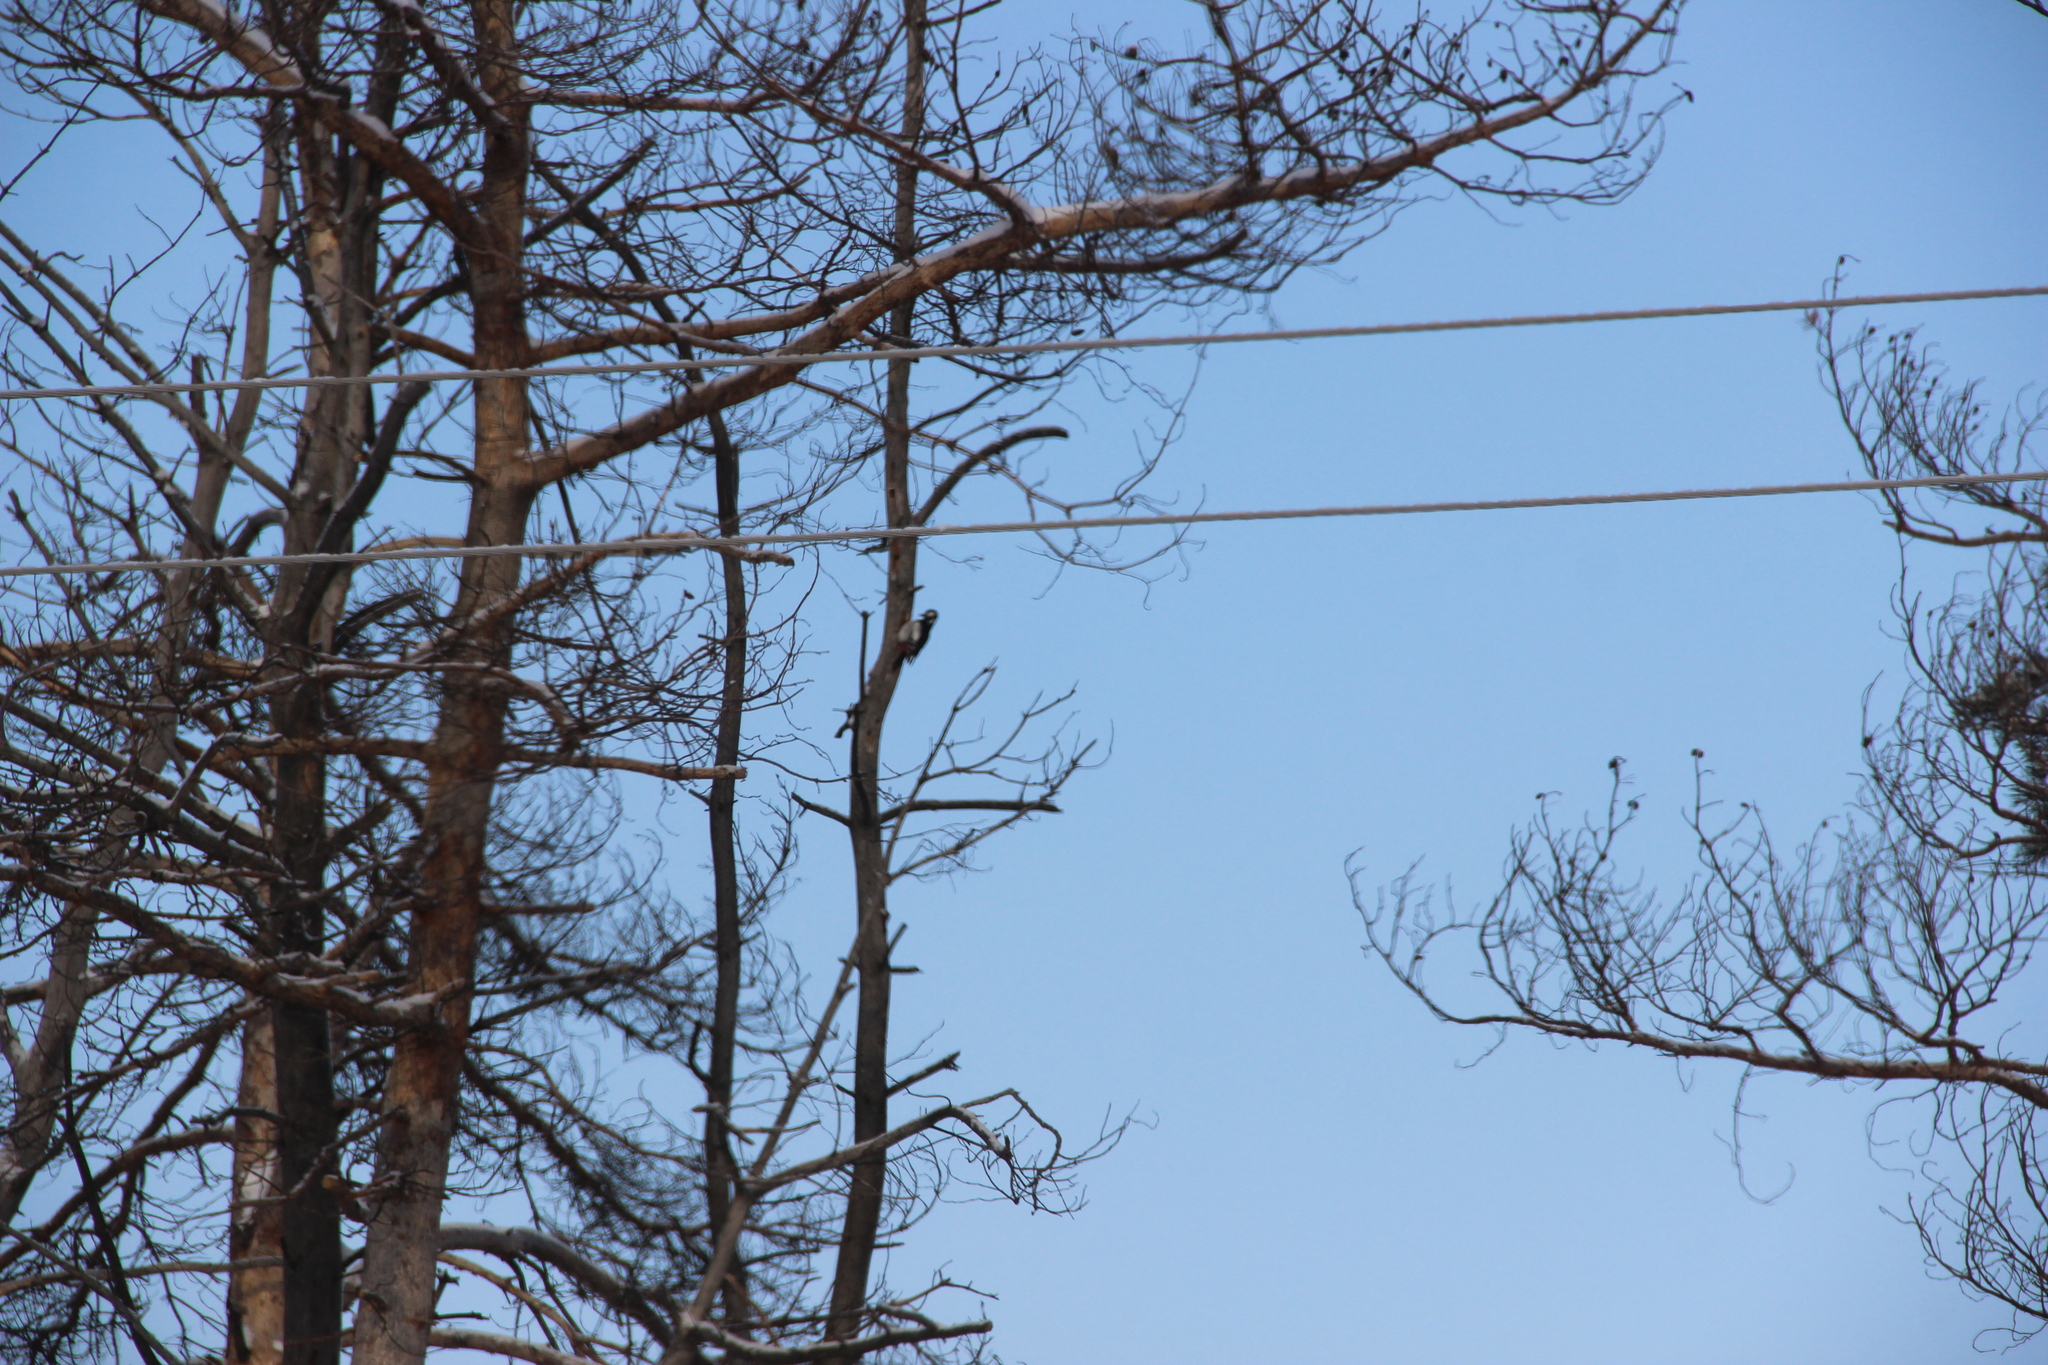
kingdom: Animalia
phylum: Chordata
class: Aves
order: Piciformes
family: Picidae
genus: Dendrocopos
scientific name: Dendrocopos major
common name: Great spotted woodpecker
